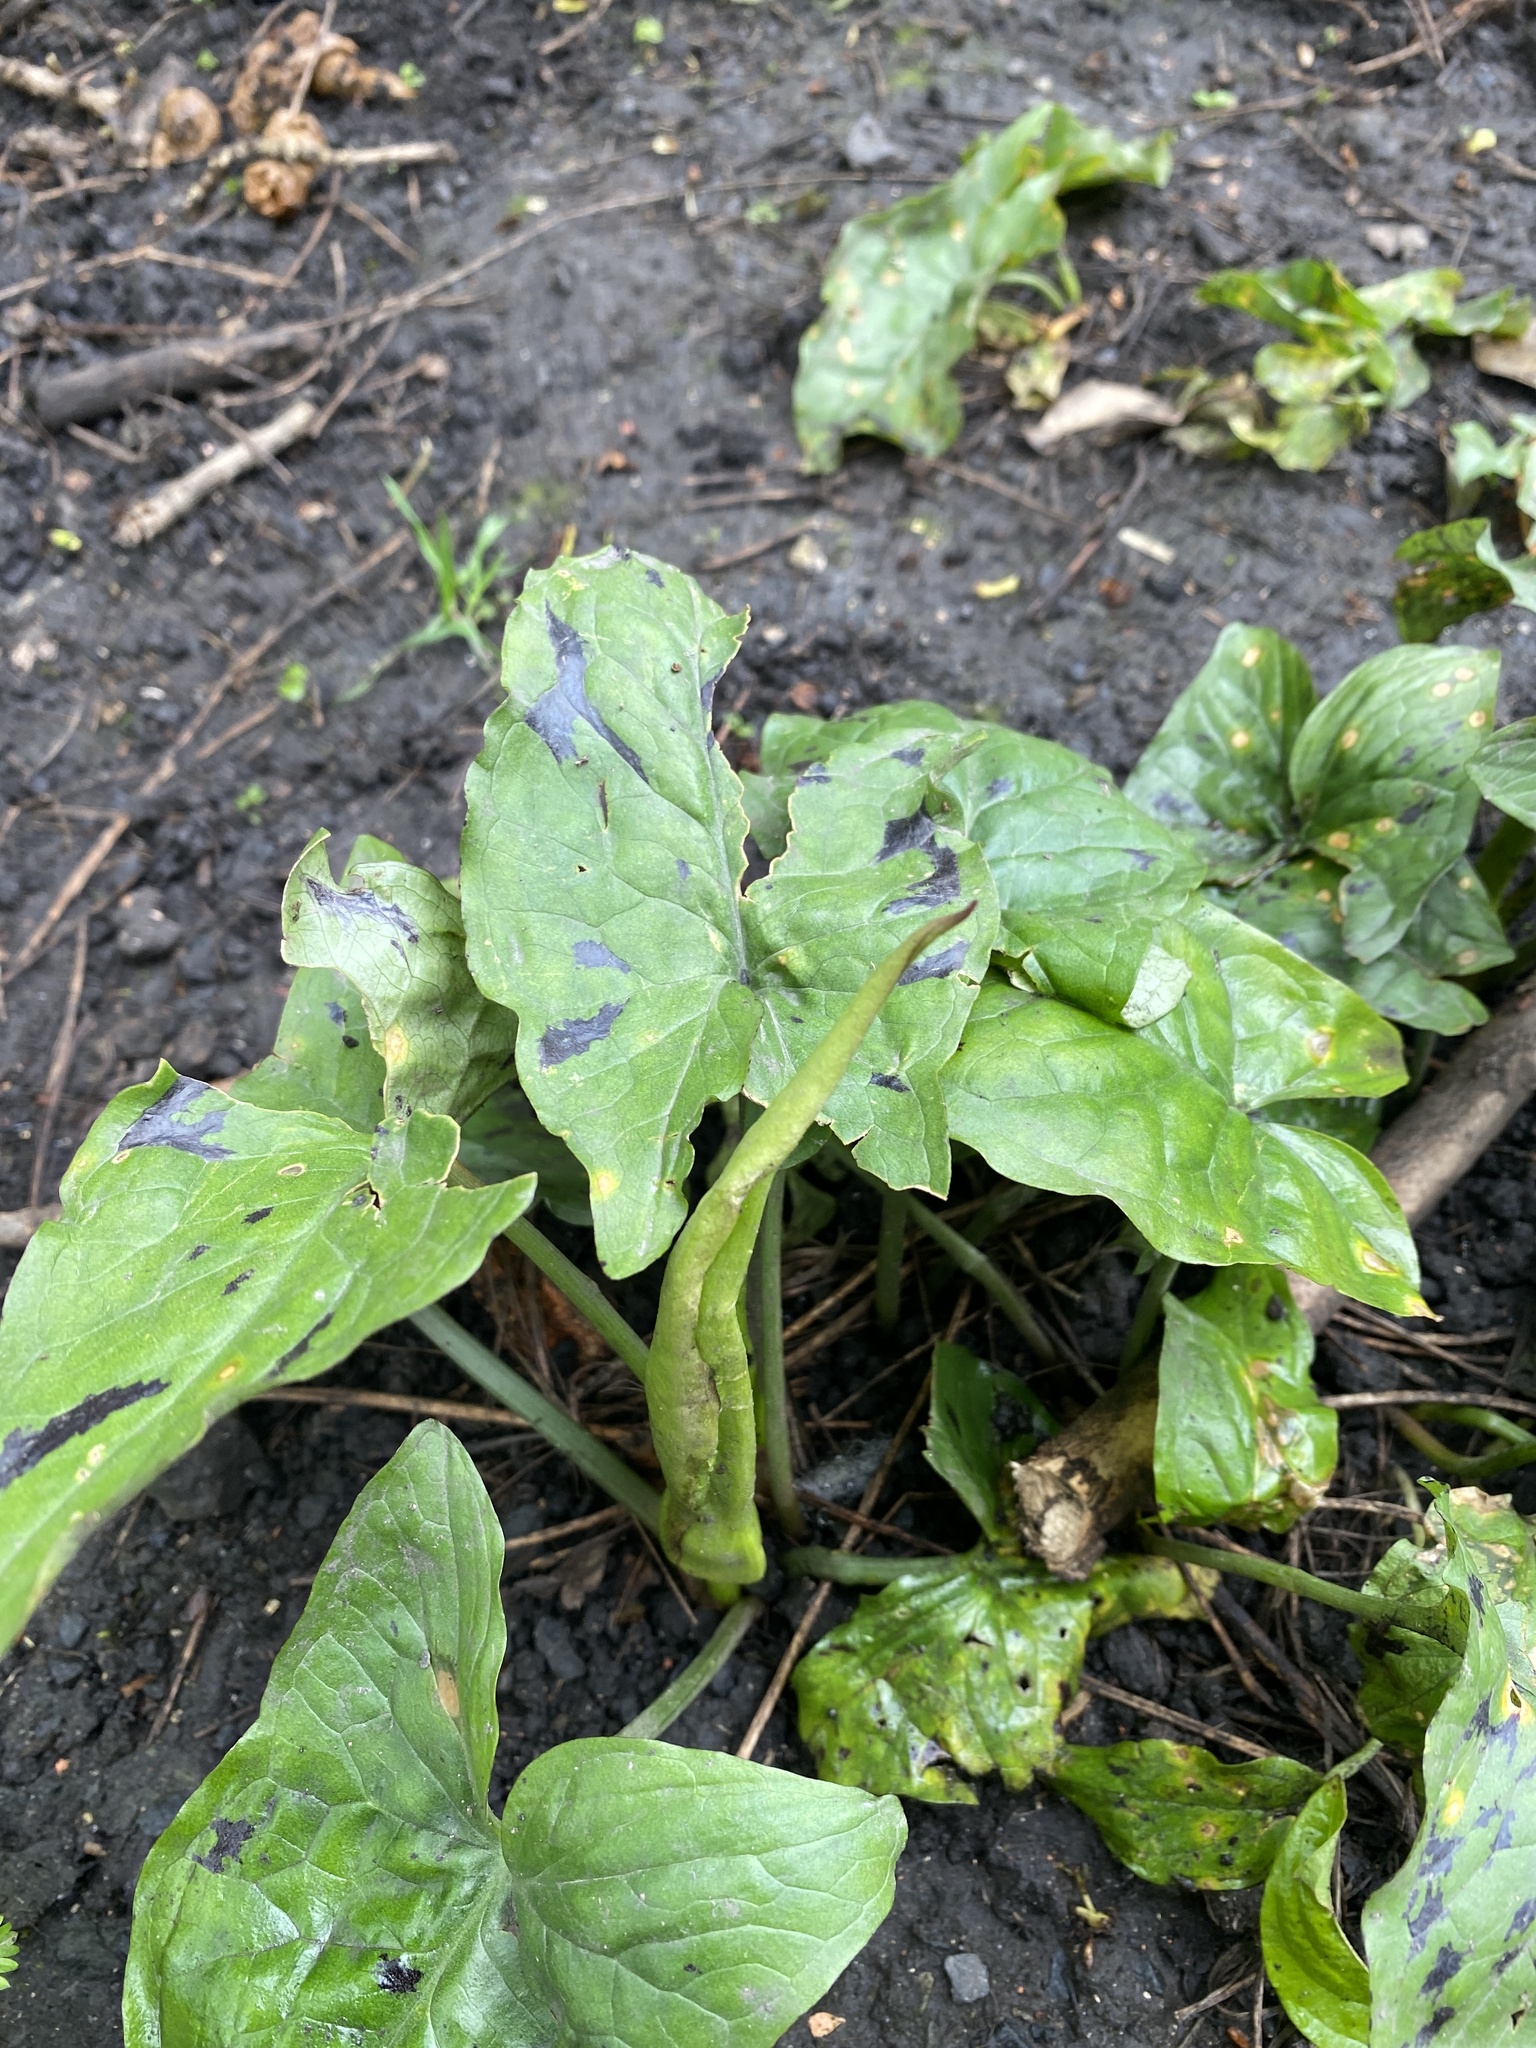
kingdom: Plantae
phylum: Tracheophyta
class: Liliopsida
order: Alismatales
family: Araceae
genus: Arum
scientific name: Arum maculatum
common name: Lords-and-ladies
